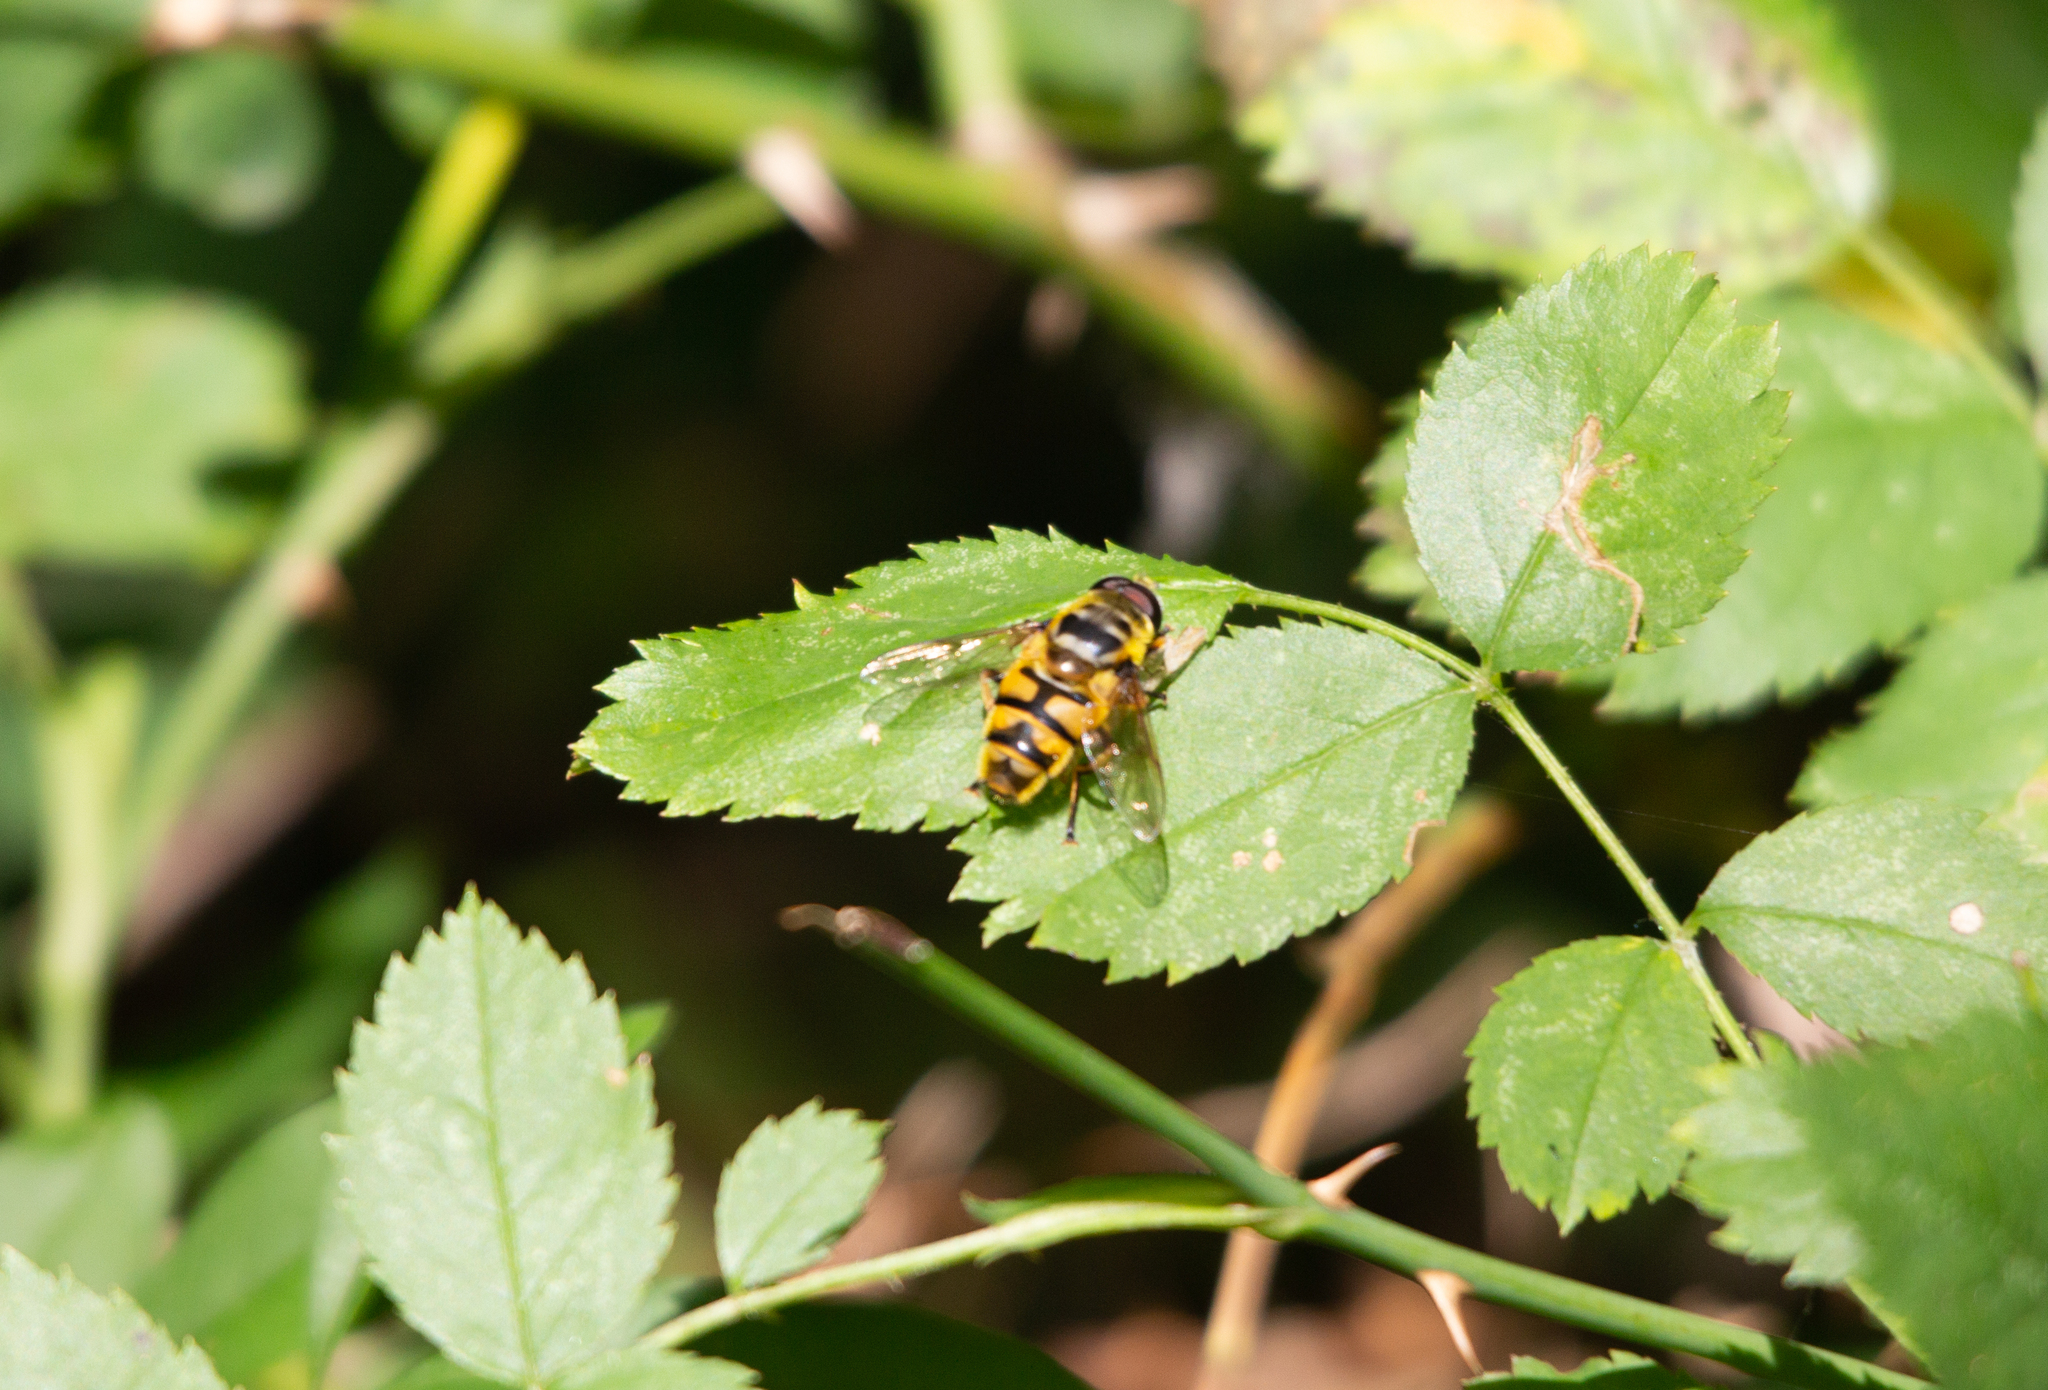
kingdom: Animalia
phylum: Arthropoda
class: Insecta
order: Diptera
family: Syrphidae
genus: Myathropa
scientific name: Myathropa florea
